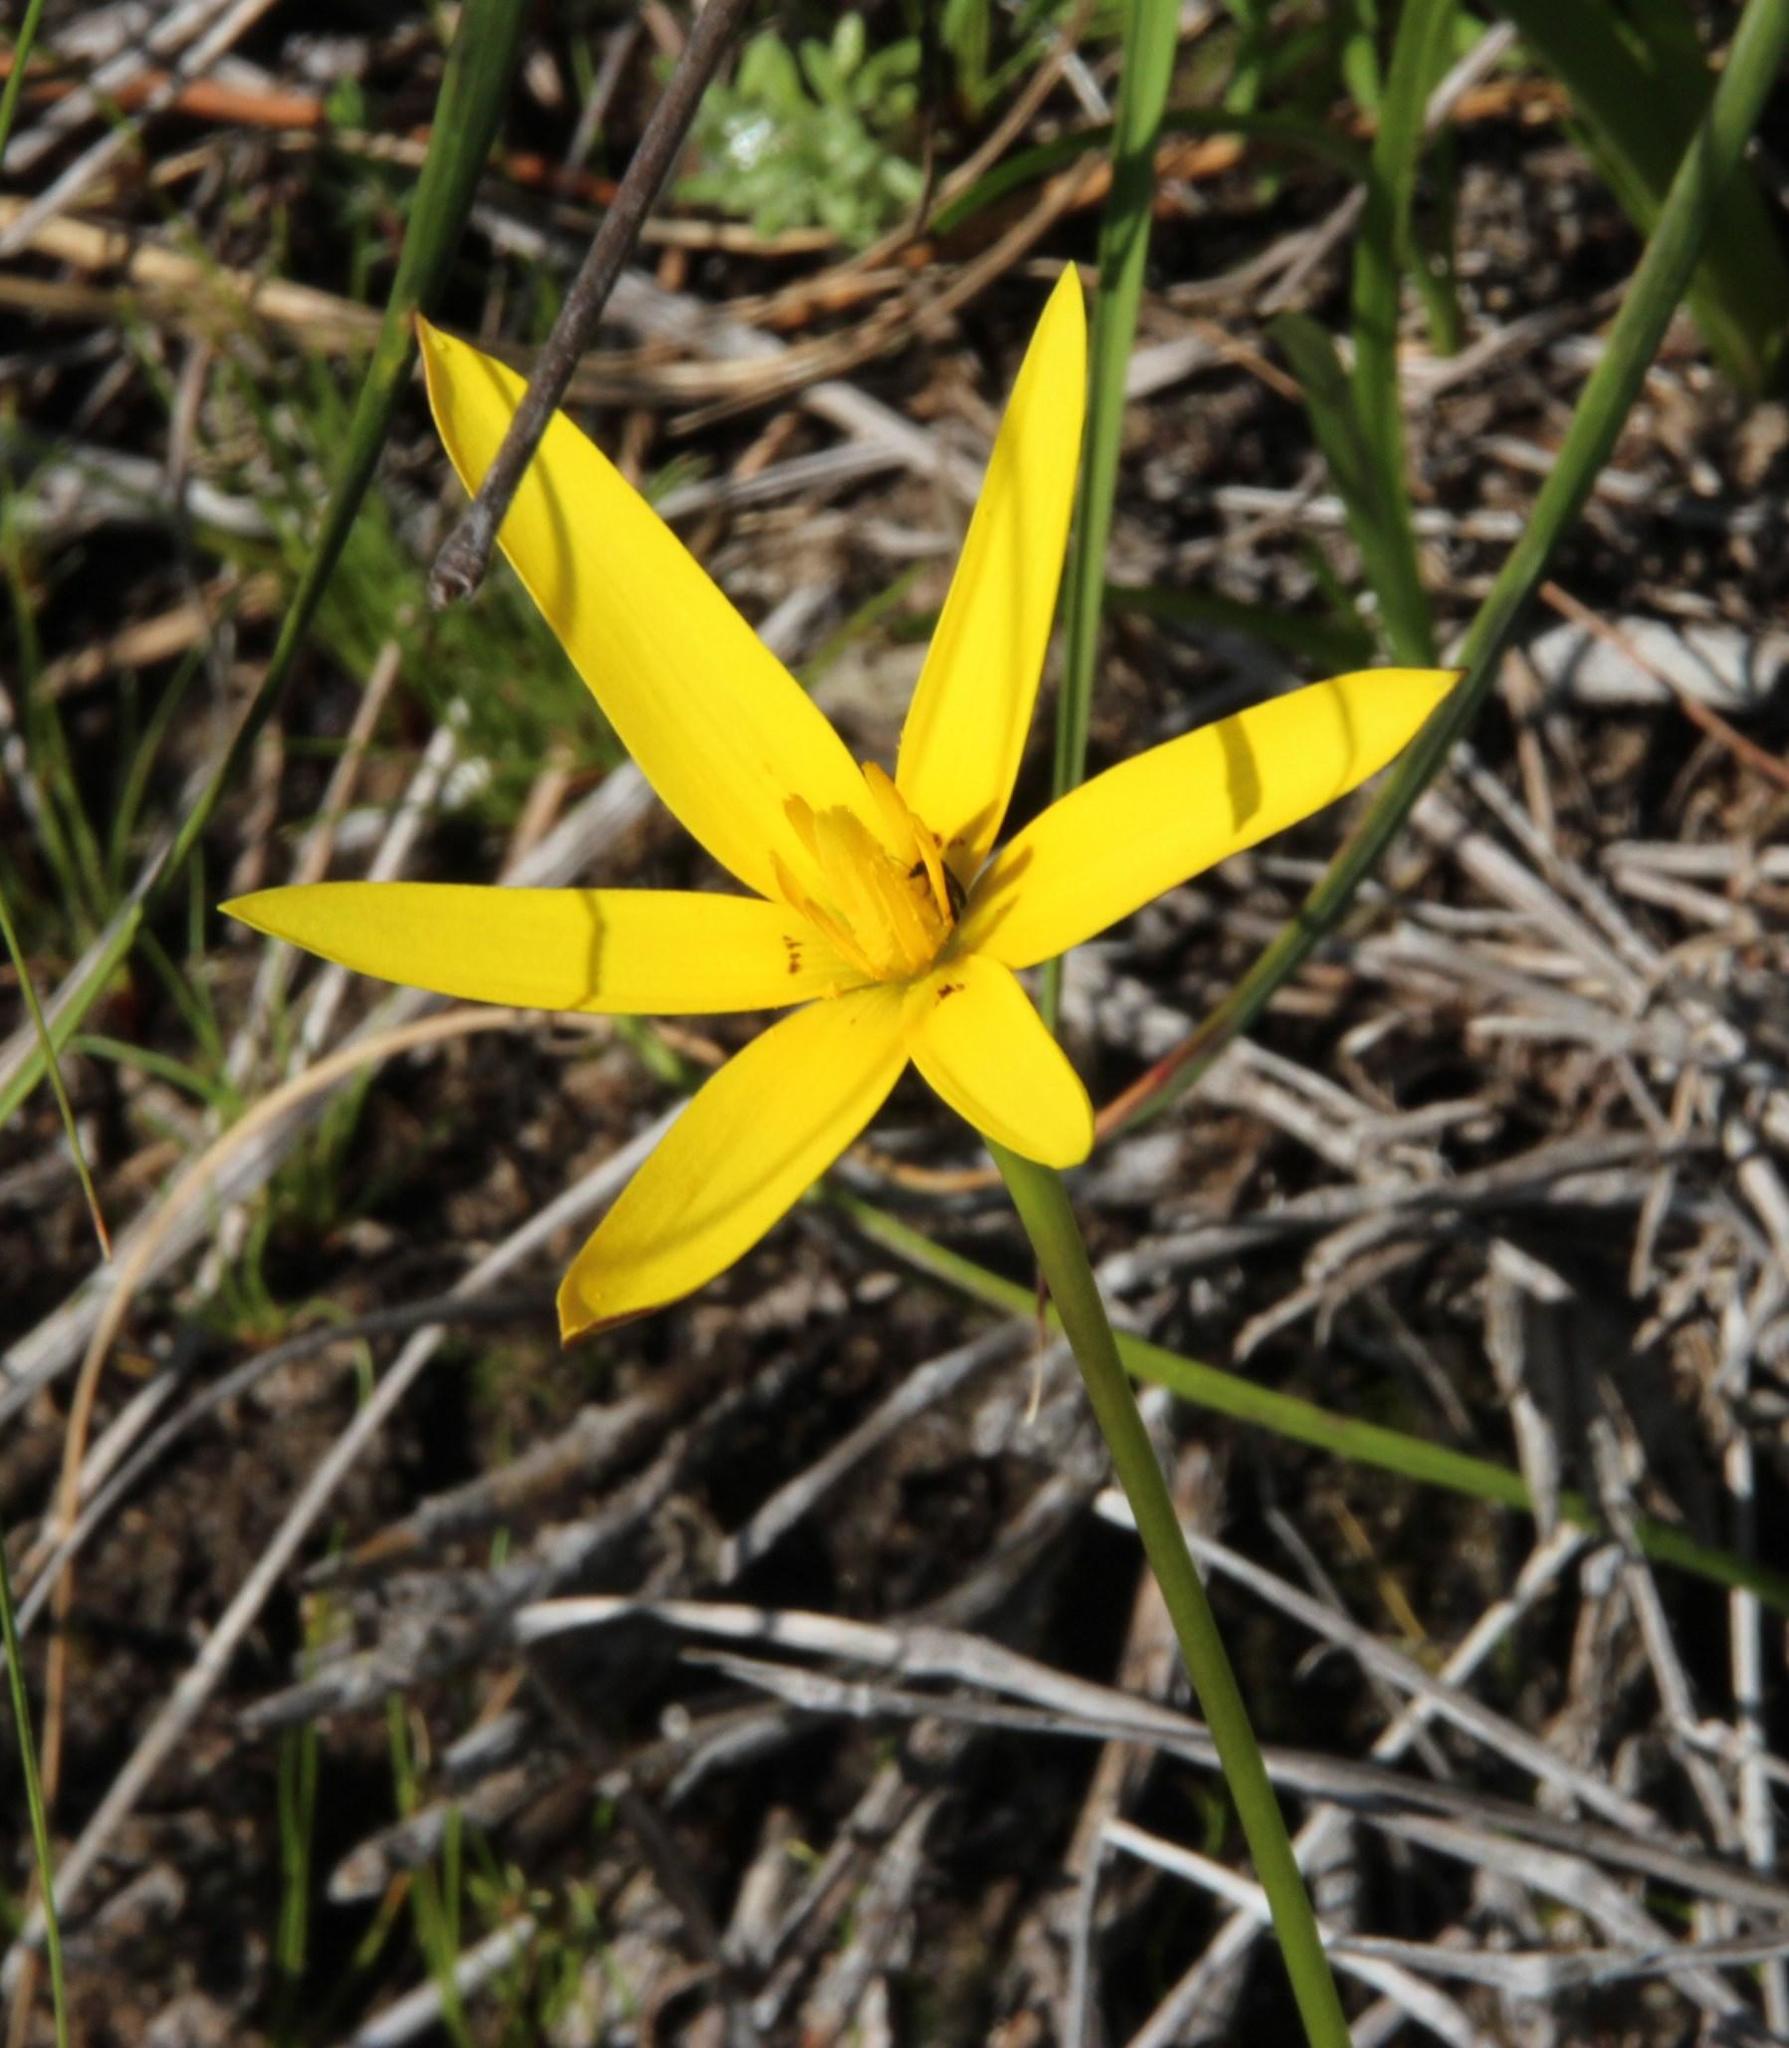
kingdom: Plantae
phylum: Tracheophyta
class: Liliopsida
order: Asparagales
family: Hypoxidaceae
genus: Pauridia
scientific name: Pauridia capensis
